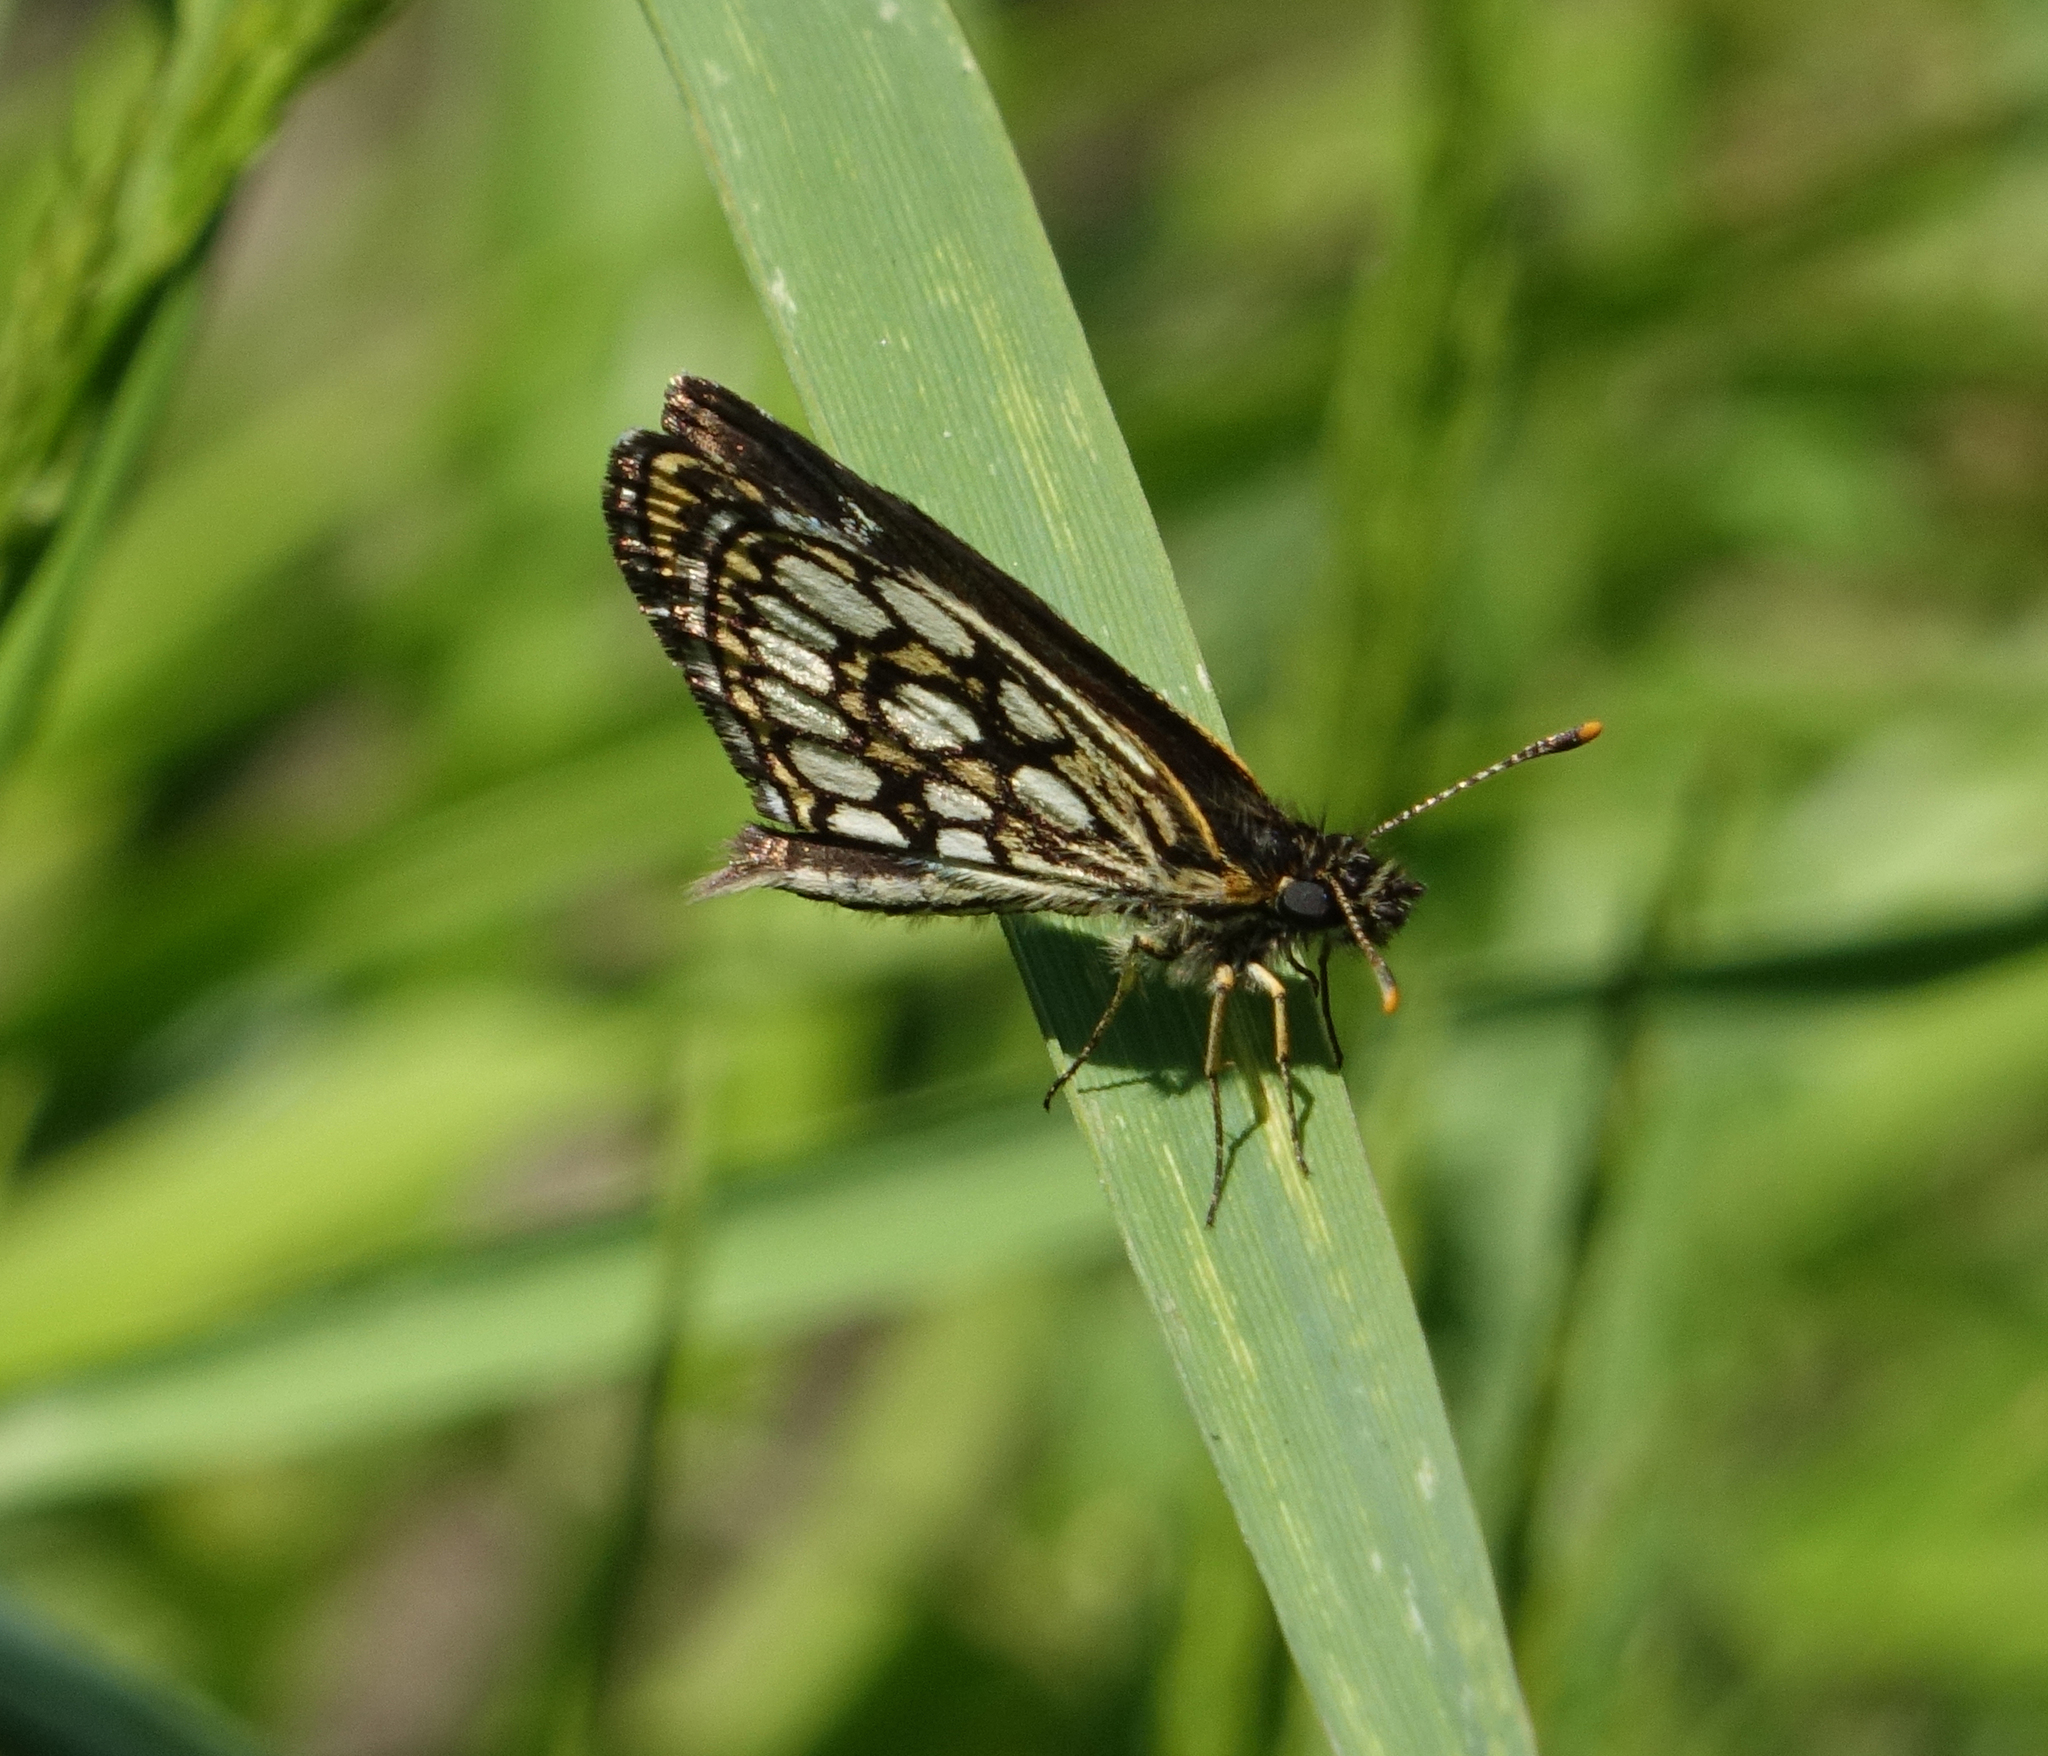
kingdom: Animalia
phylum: Arthropoda
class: Insecta
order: Lepidoptera
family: Hesperiidae
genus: Heteropterus
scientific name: Heteropterus morpheus
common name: Large chequered skipper
